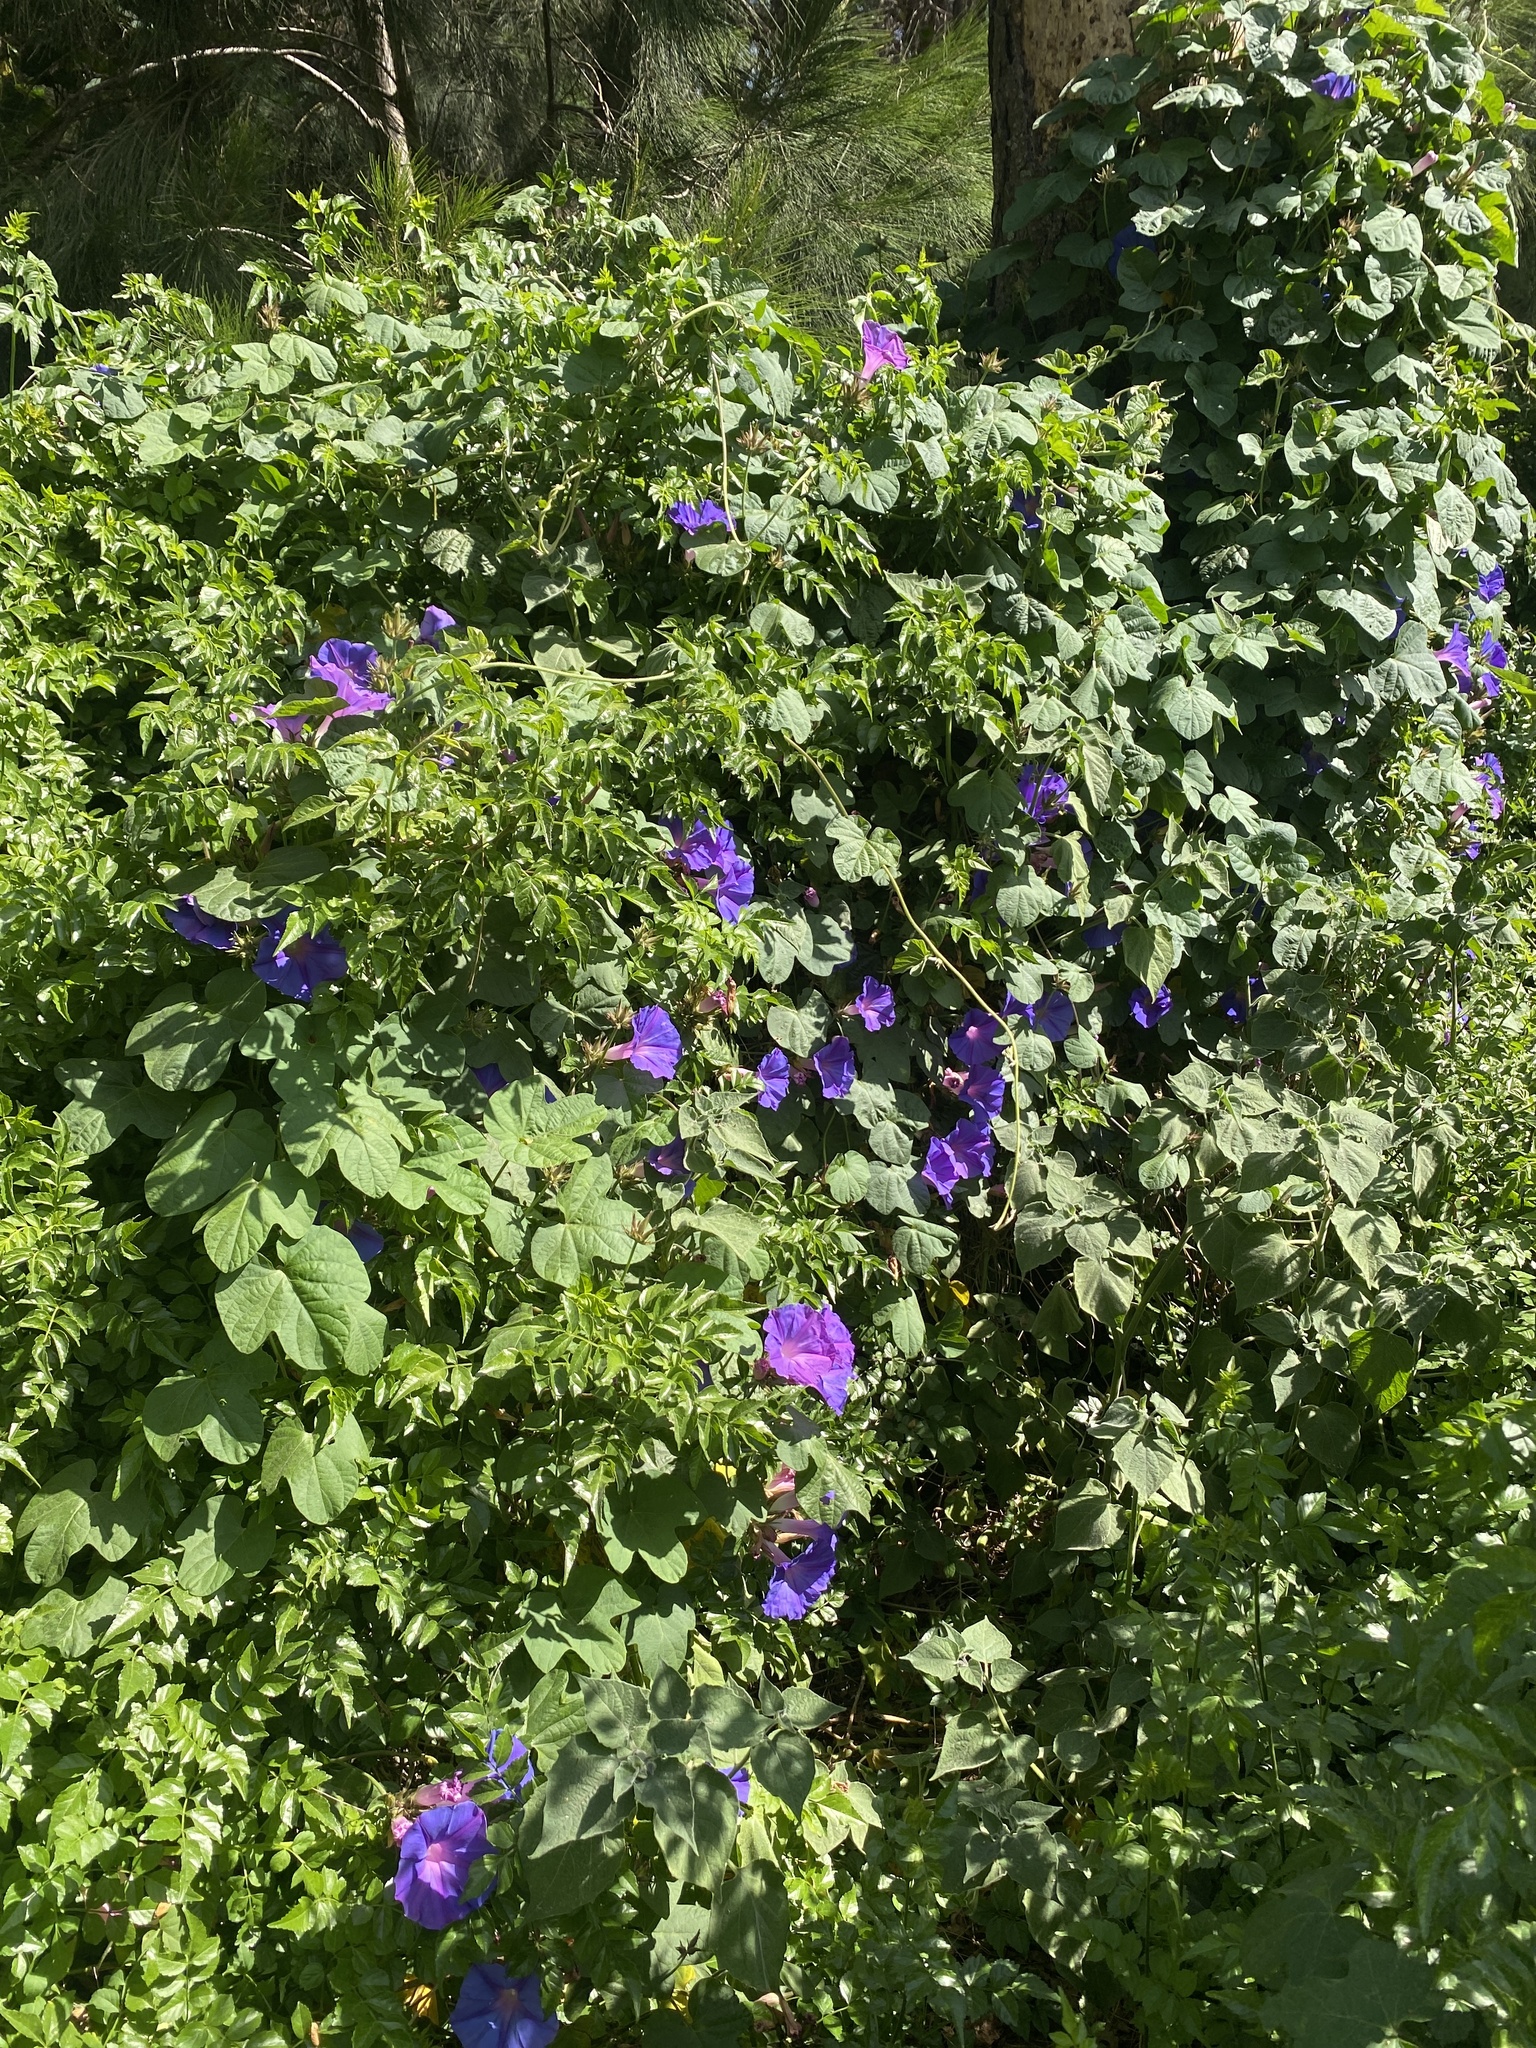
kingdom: Plantae
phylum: Tracheophyta
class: Magnoliopsida
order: Solanales
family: Convolvulaceae
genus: Ipomoea
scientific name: Ipomoea indica
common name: Blue dawnflower
